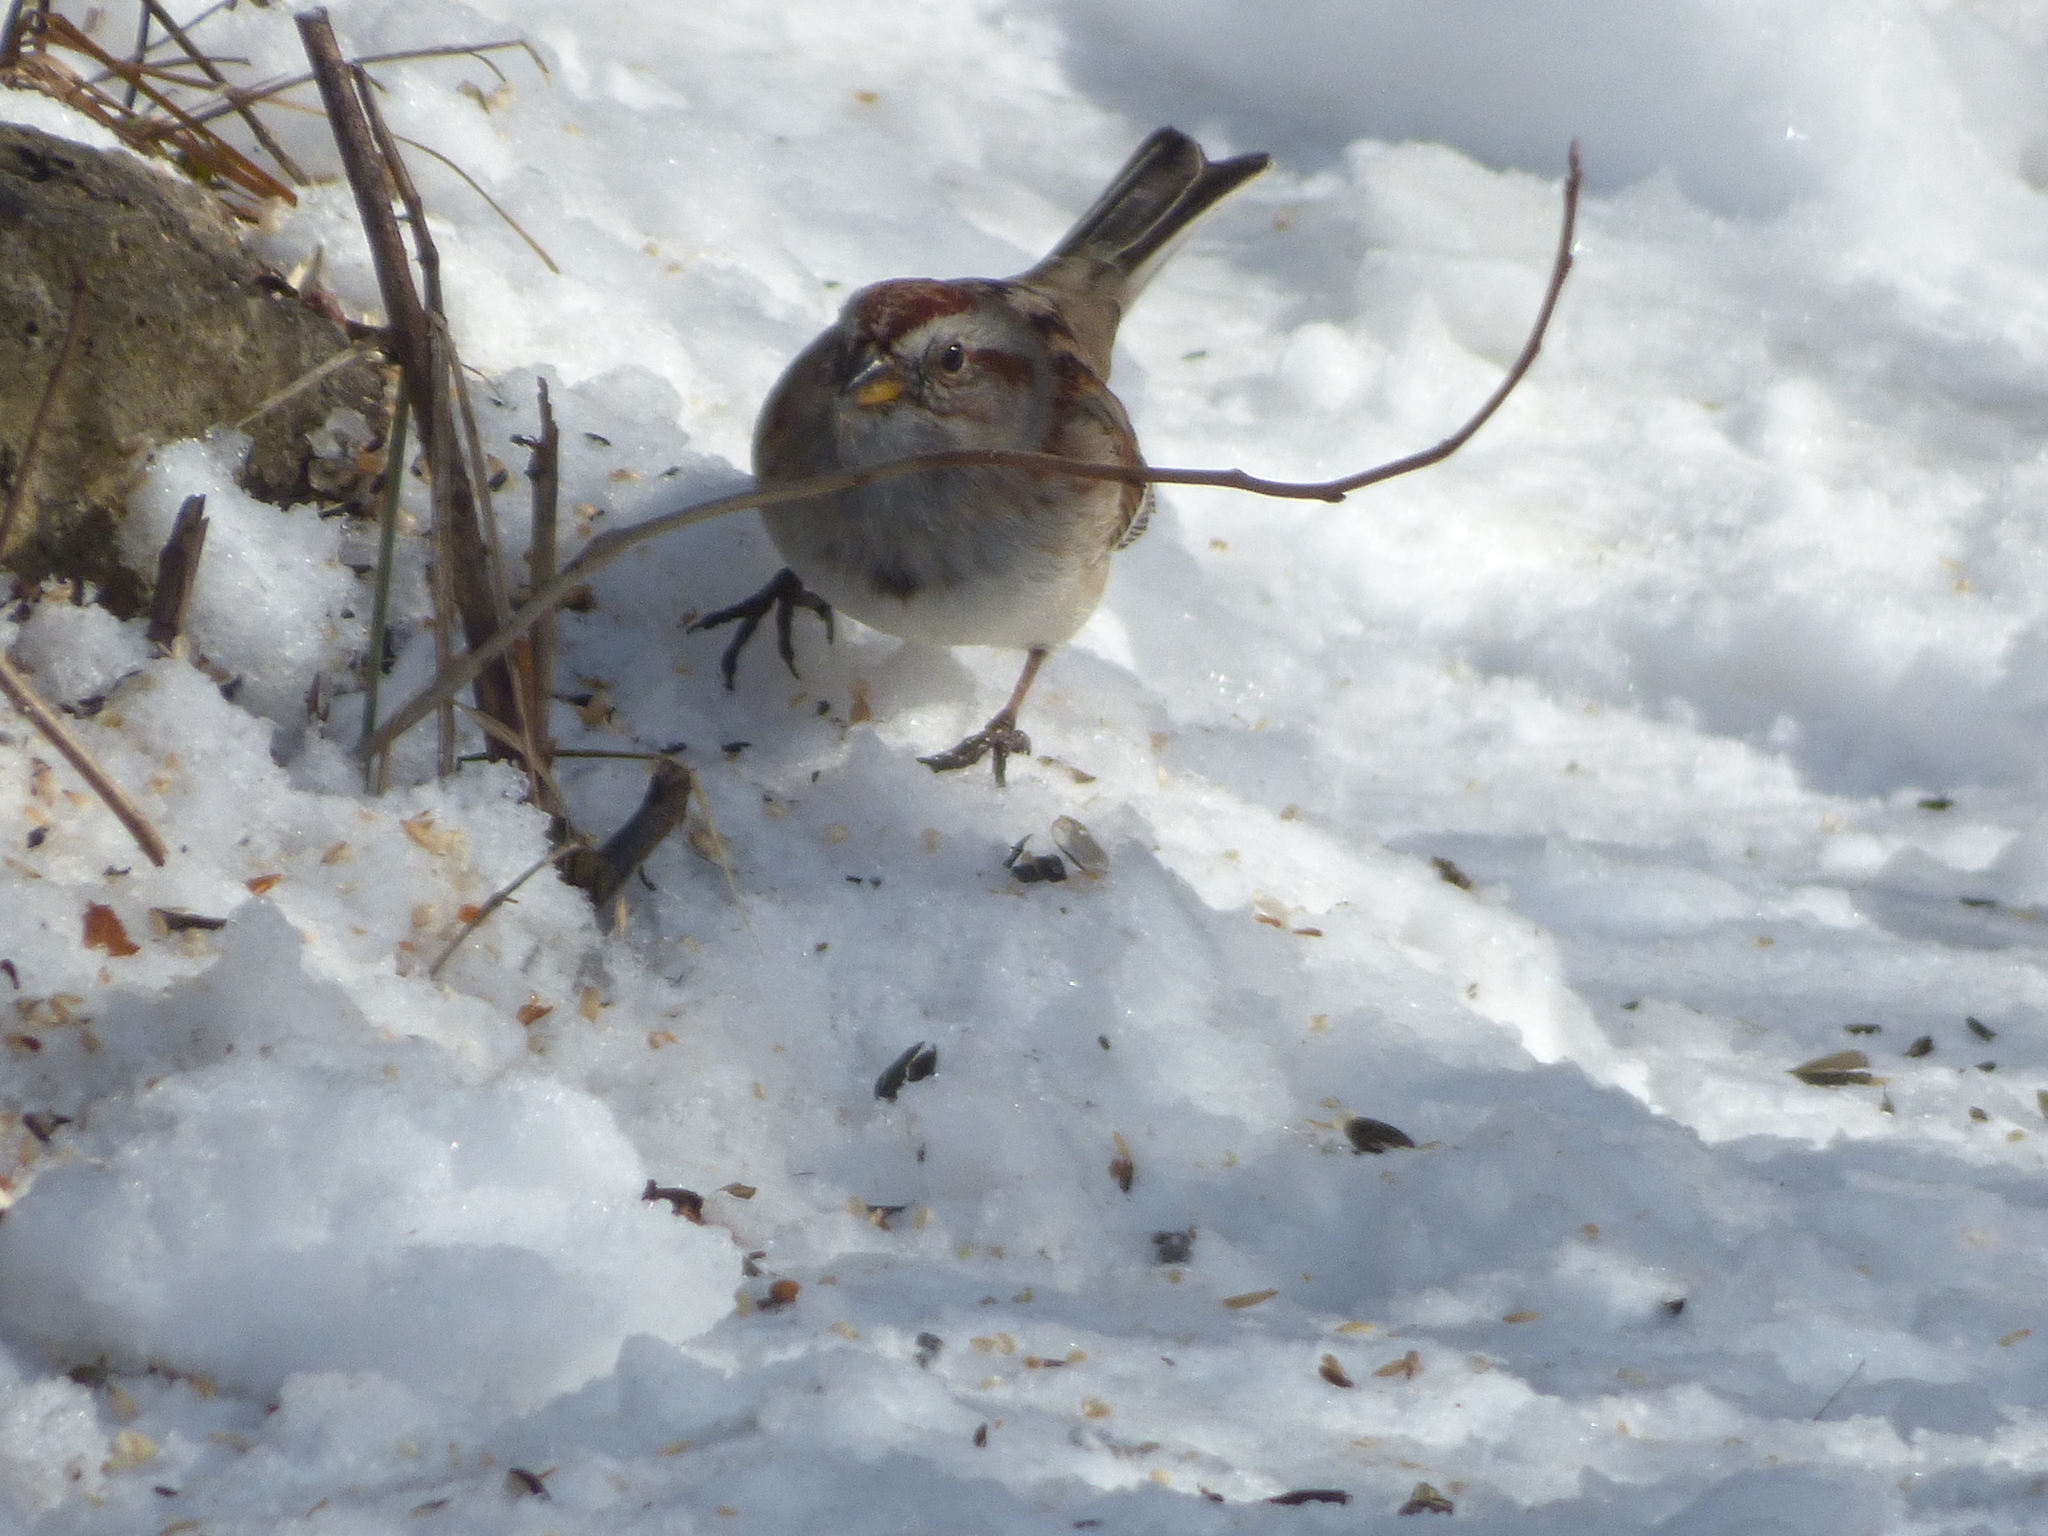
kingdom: Animalia
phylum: Chordata
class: Aves
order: Passeriformes
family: Passerellidae
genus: Spizelloides
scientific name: Spizelloides arborea
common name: American tree sparrow
